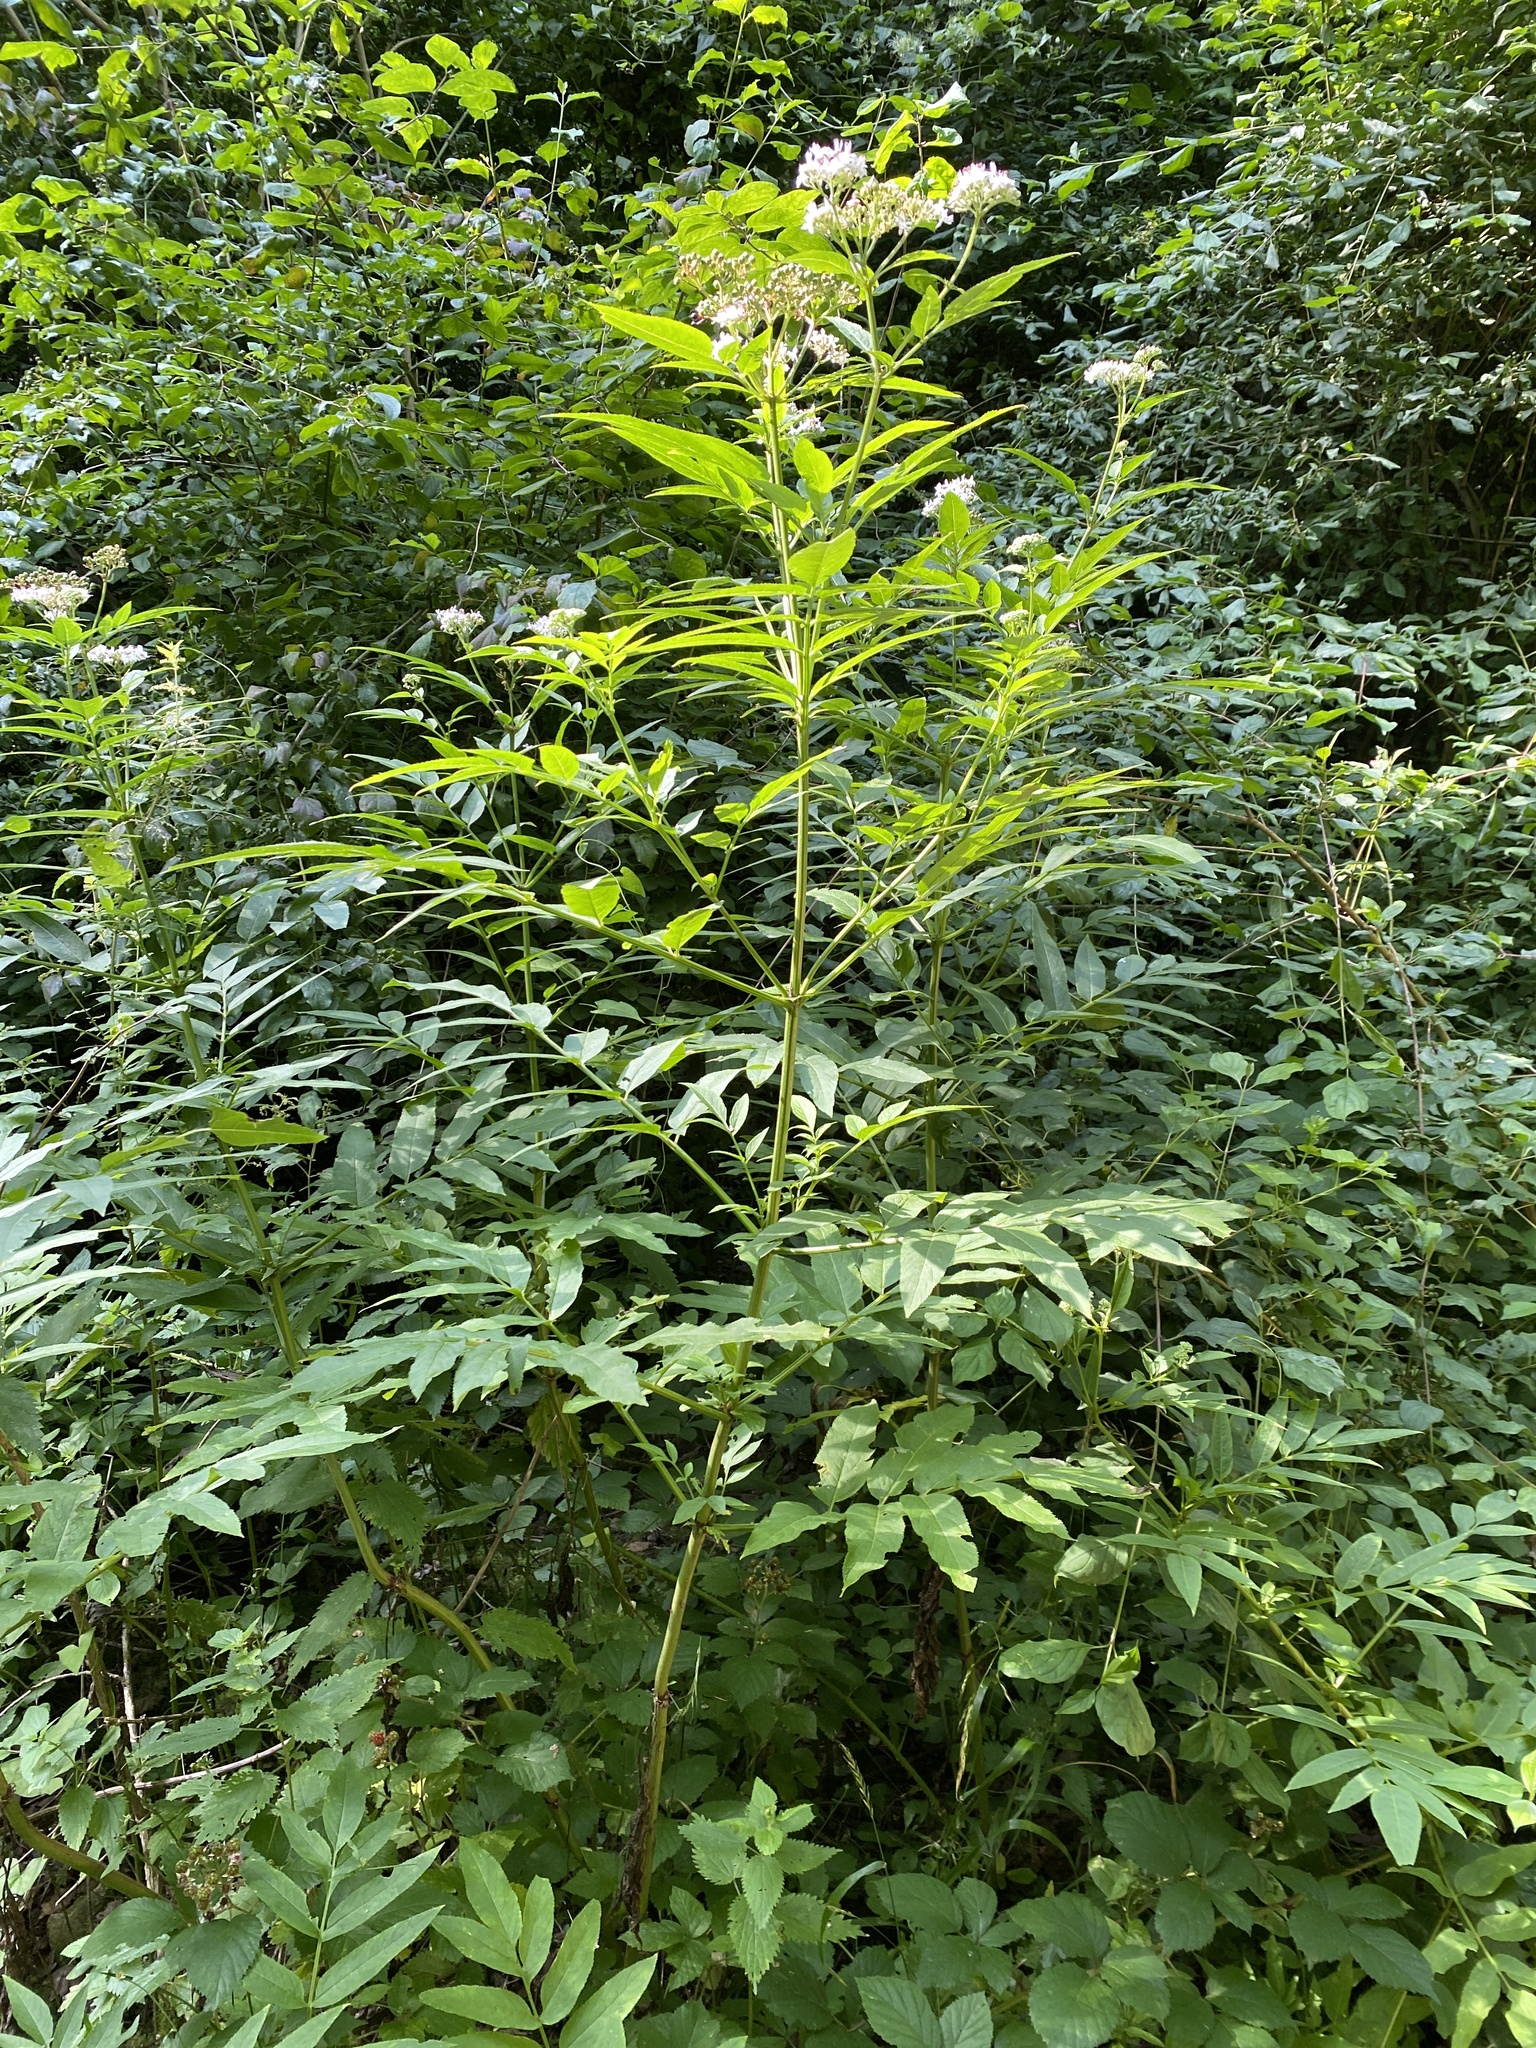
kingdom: Plantae
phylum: Tracheophyta
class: Magnoliopsida
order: Dipsacales
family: Viburnaceae
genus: Sambucus
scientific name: Sambucus ebulus
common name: Dwarf elder
